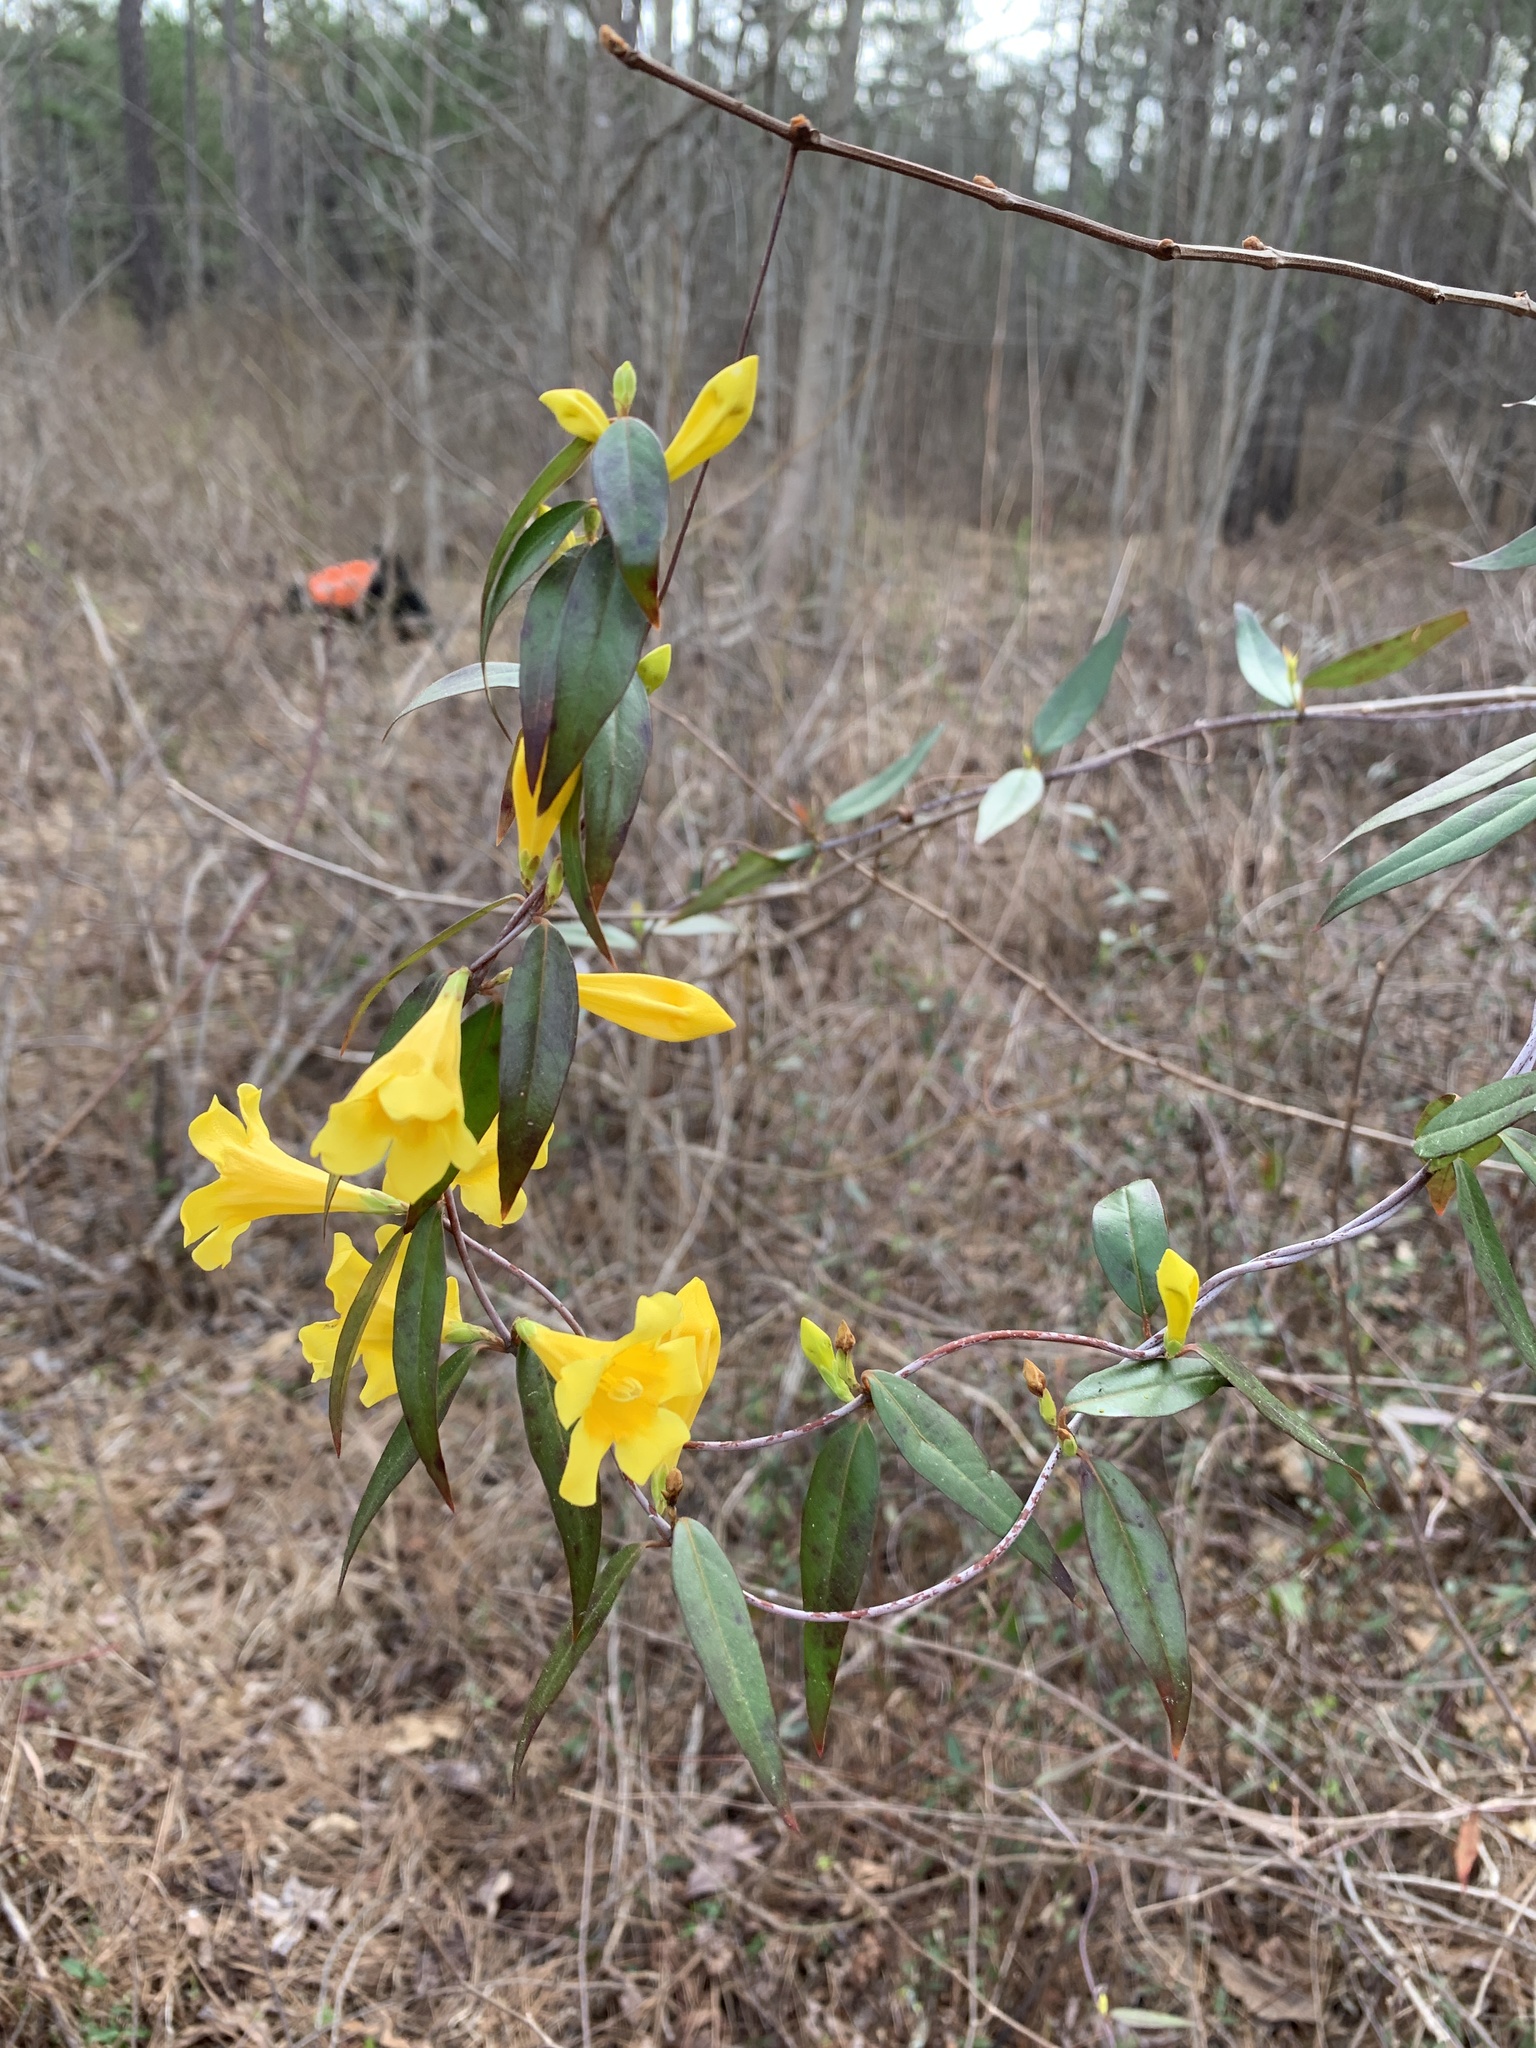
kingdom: Plantae
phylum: Tracheophyta
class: Magnoliopsida
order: Gentianales
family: Gelsemiaceae
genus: Gelsemium
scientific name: Gelsemium sempervirens
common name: Carolina-jasmine
